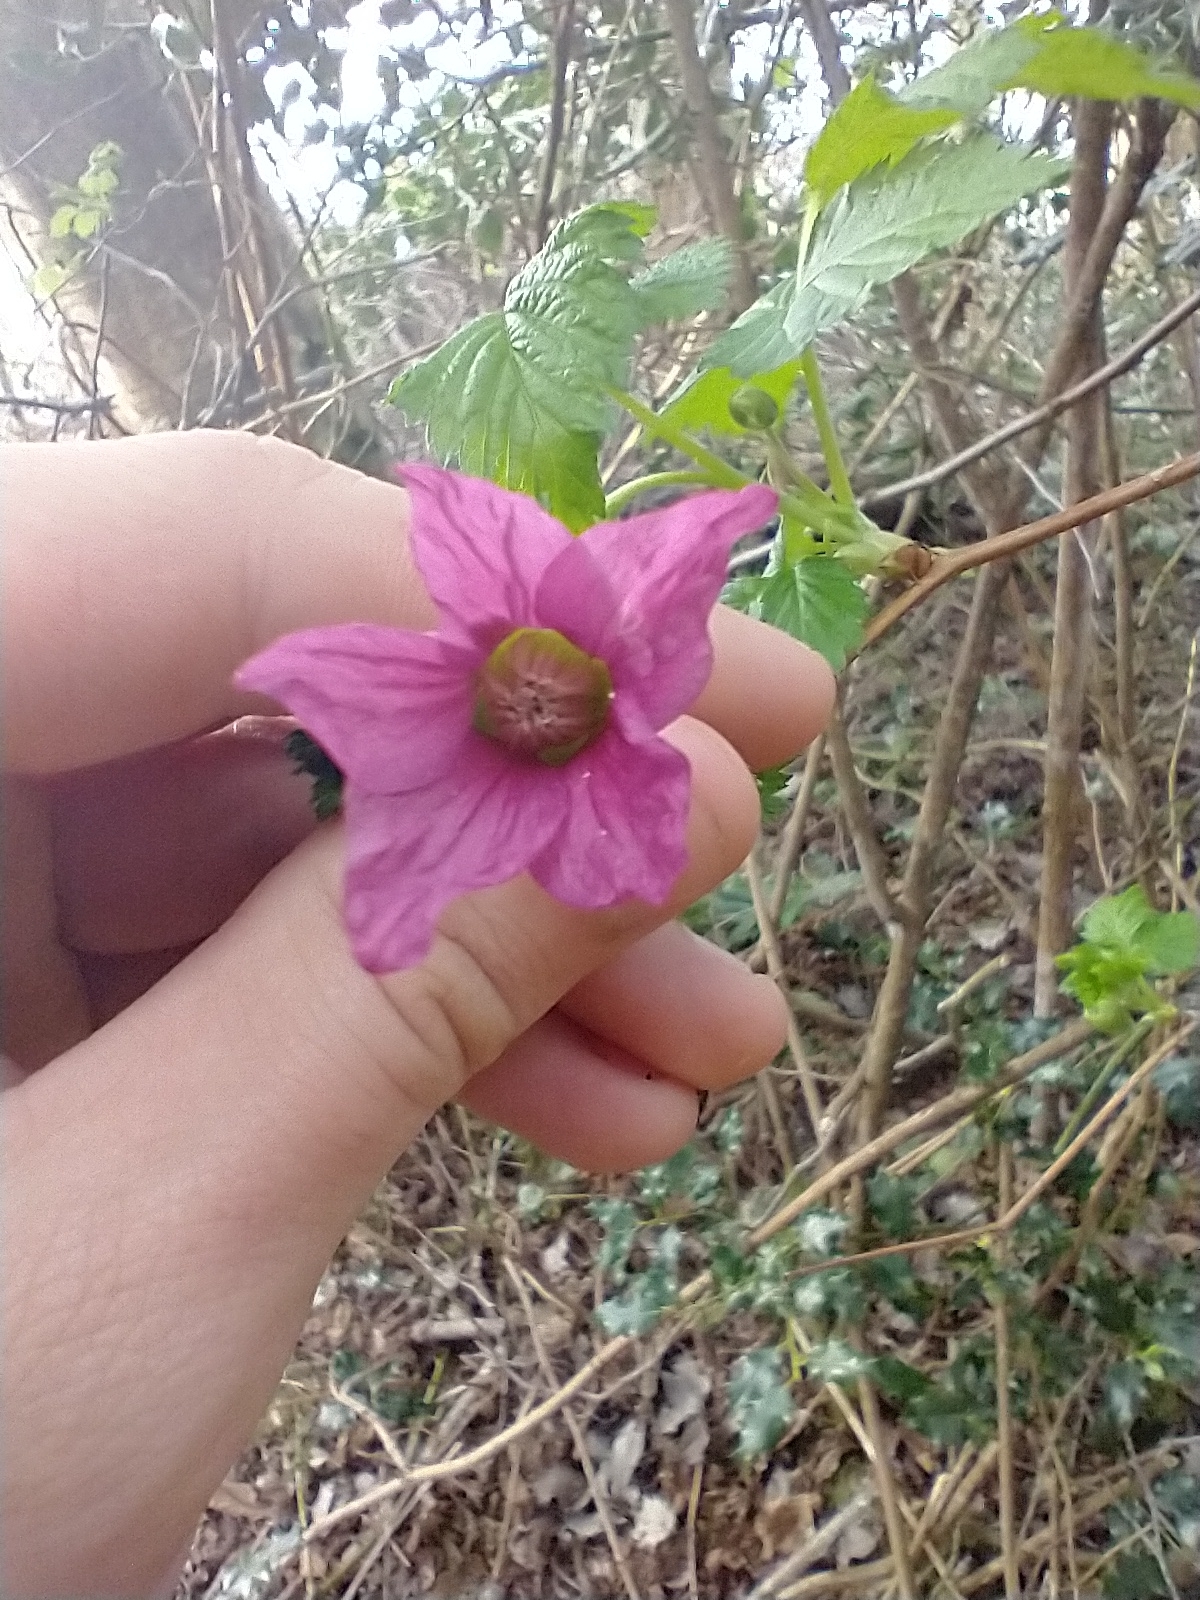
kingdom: Plantae
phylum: Tracheophyta
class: Magnoliopsida
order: Rosales
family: Rosaceae
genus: Rubus
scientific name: Rubus spectabilis
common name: Salmonberry
